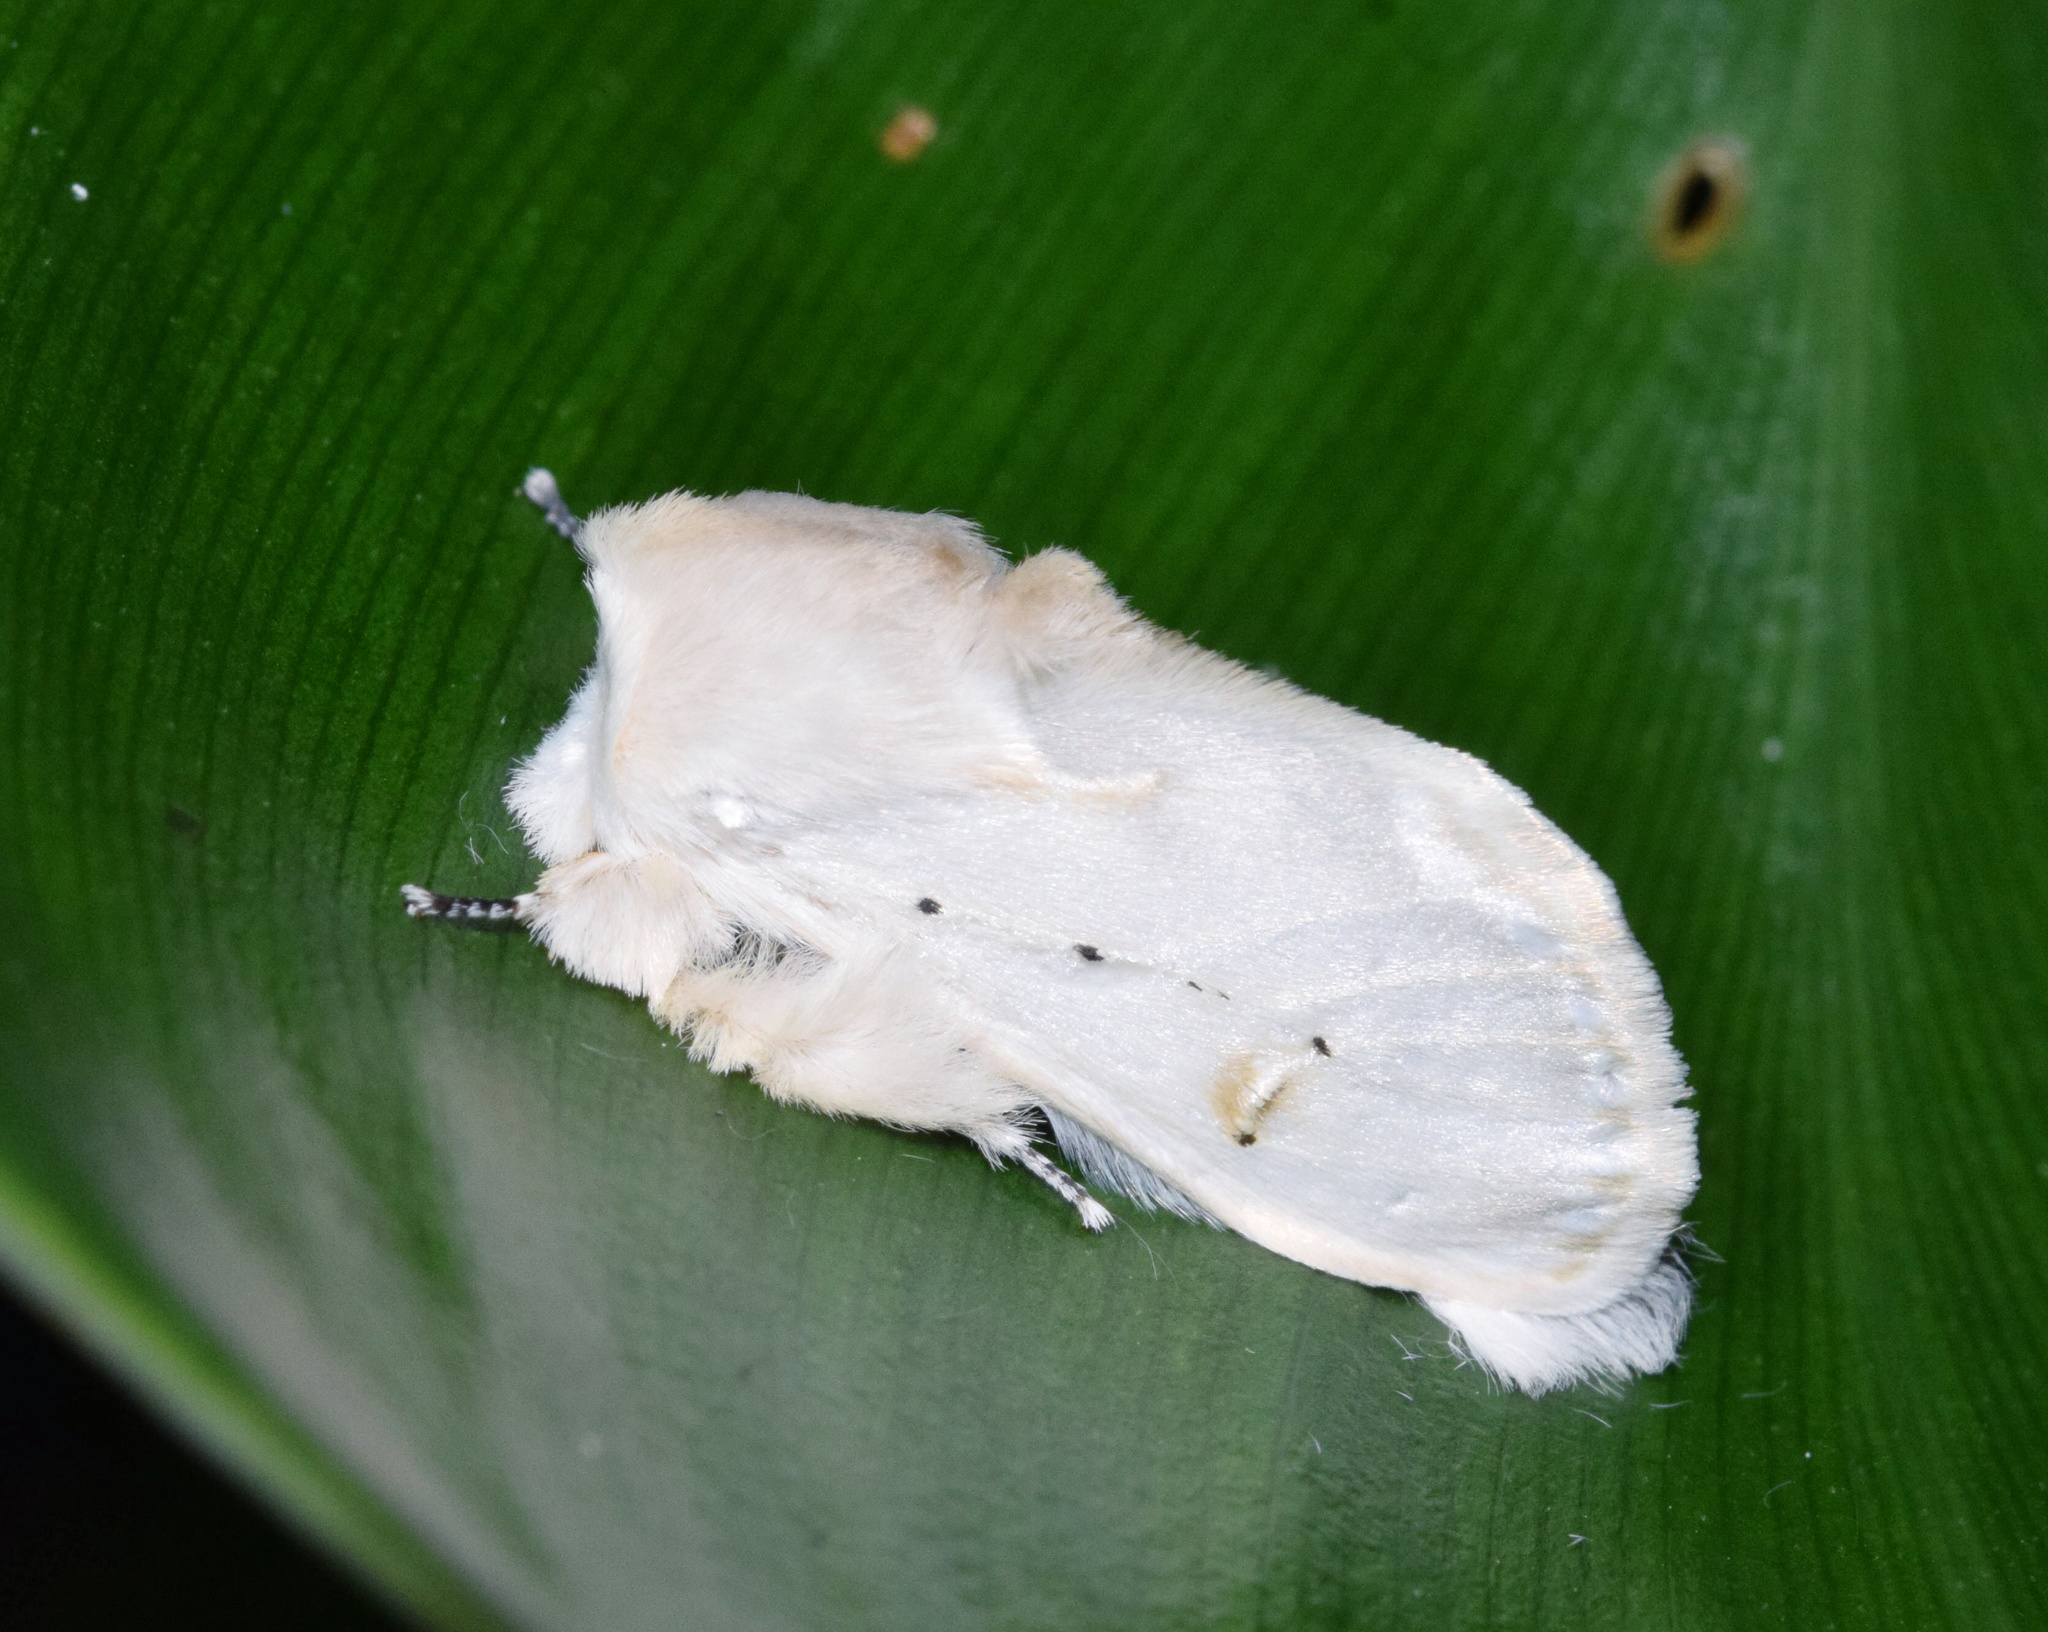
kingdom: Animalia
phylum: Arthropoda
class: Insecta
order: Lepidoptera
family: Erebidae
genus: Naroma
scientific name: Naroma varipes
